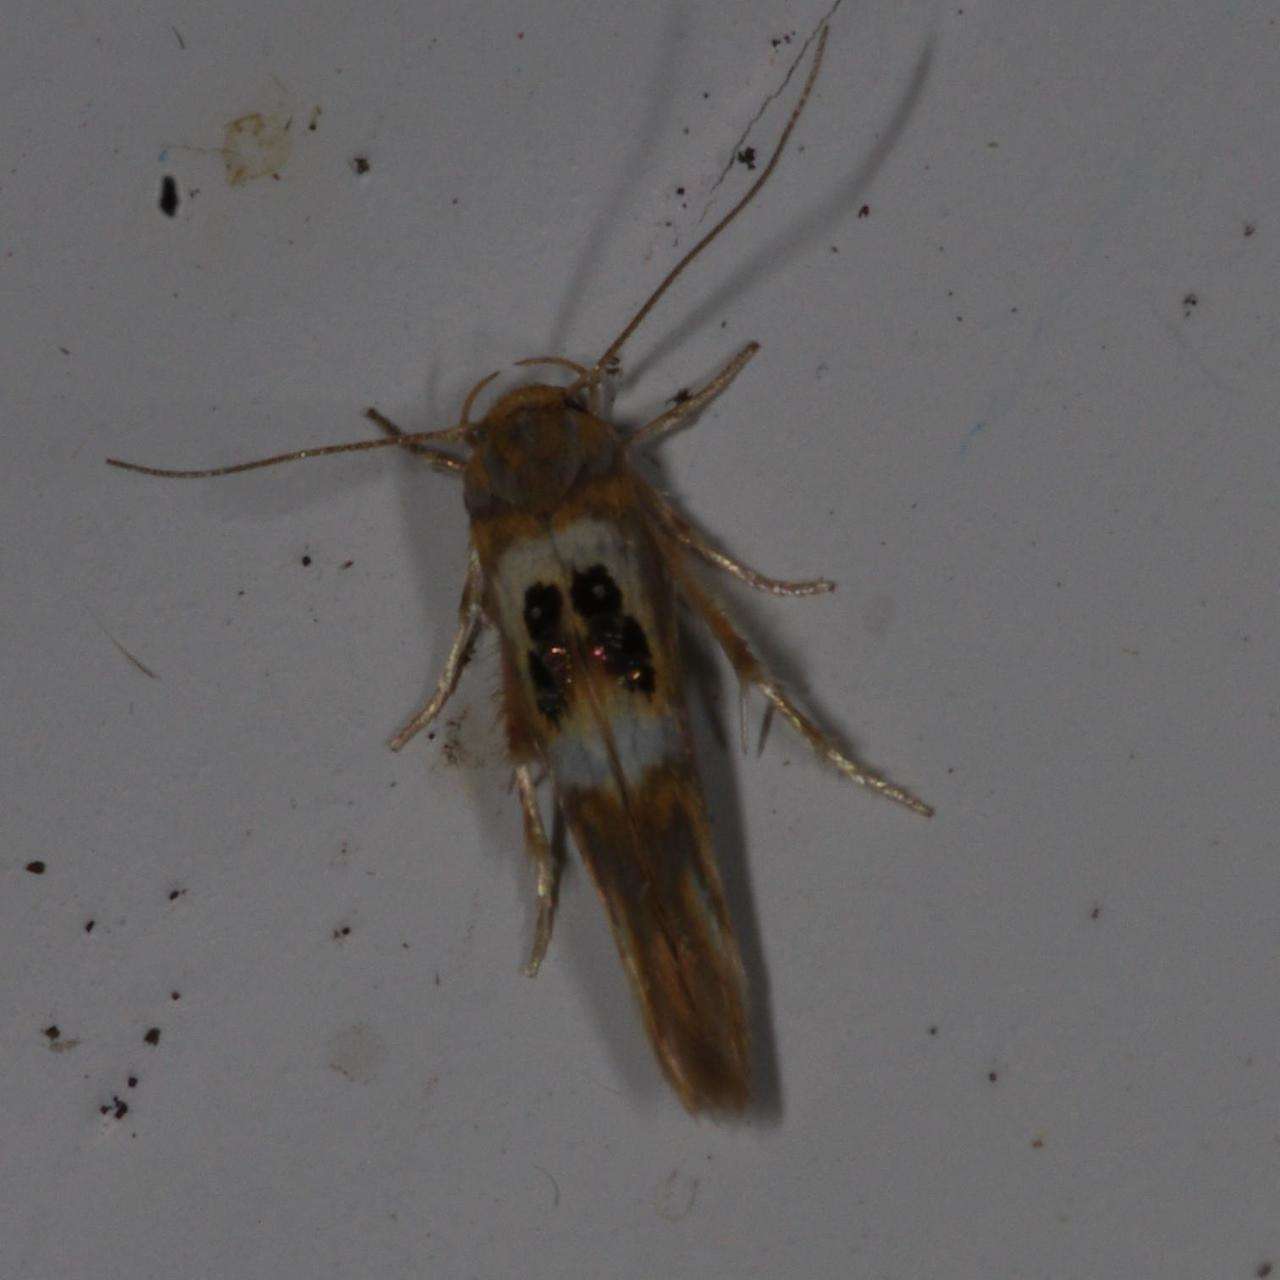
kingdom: Animalia
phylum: Arthropoda
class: Insecta
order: Lepidoptera
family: Stathmopodidae
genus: Hieromantis
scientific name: Hieromantis ephodophora
